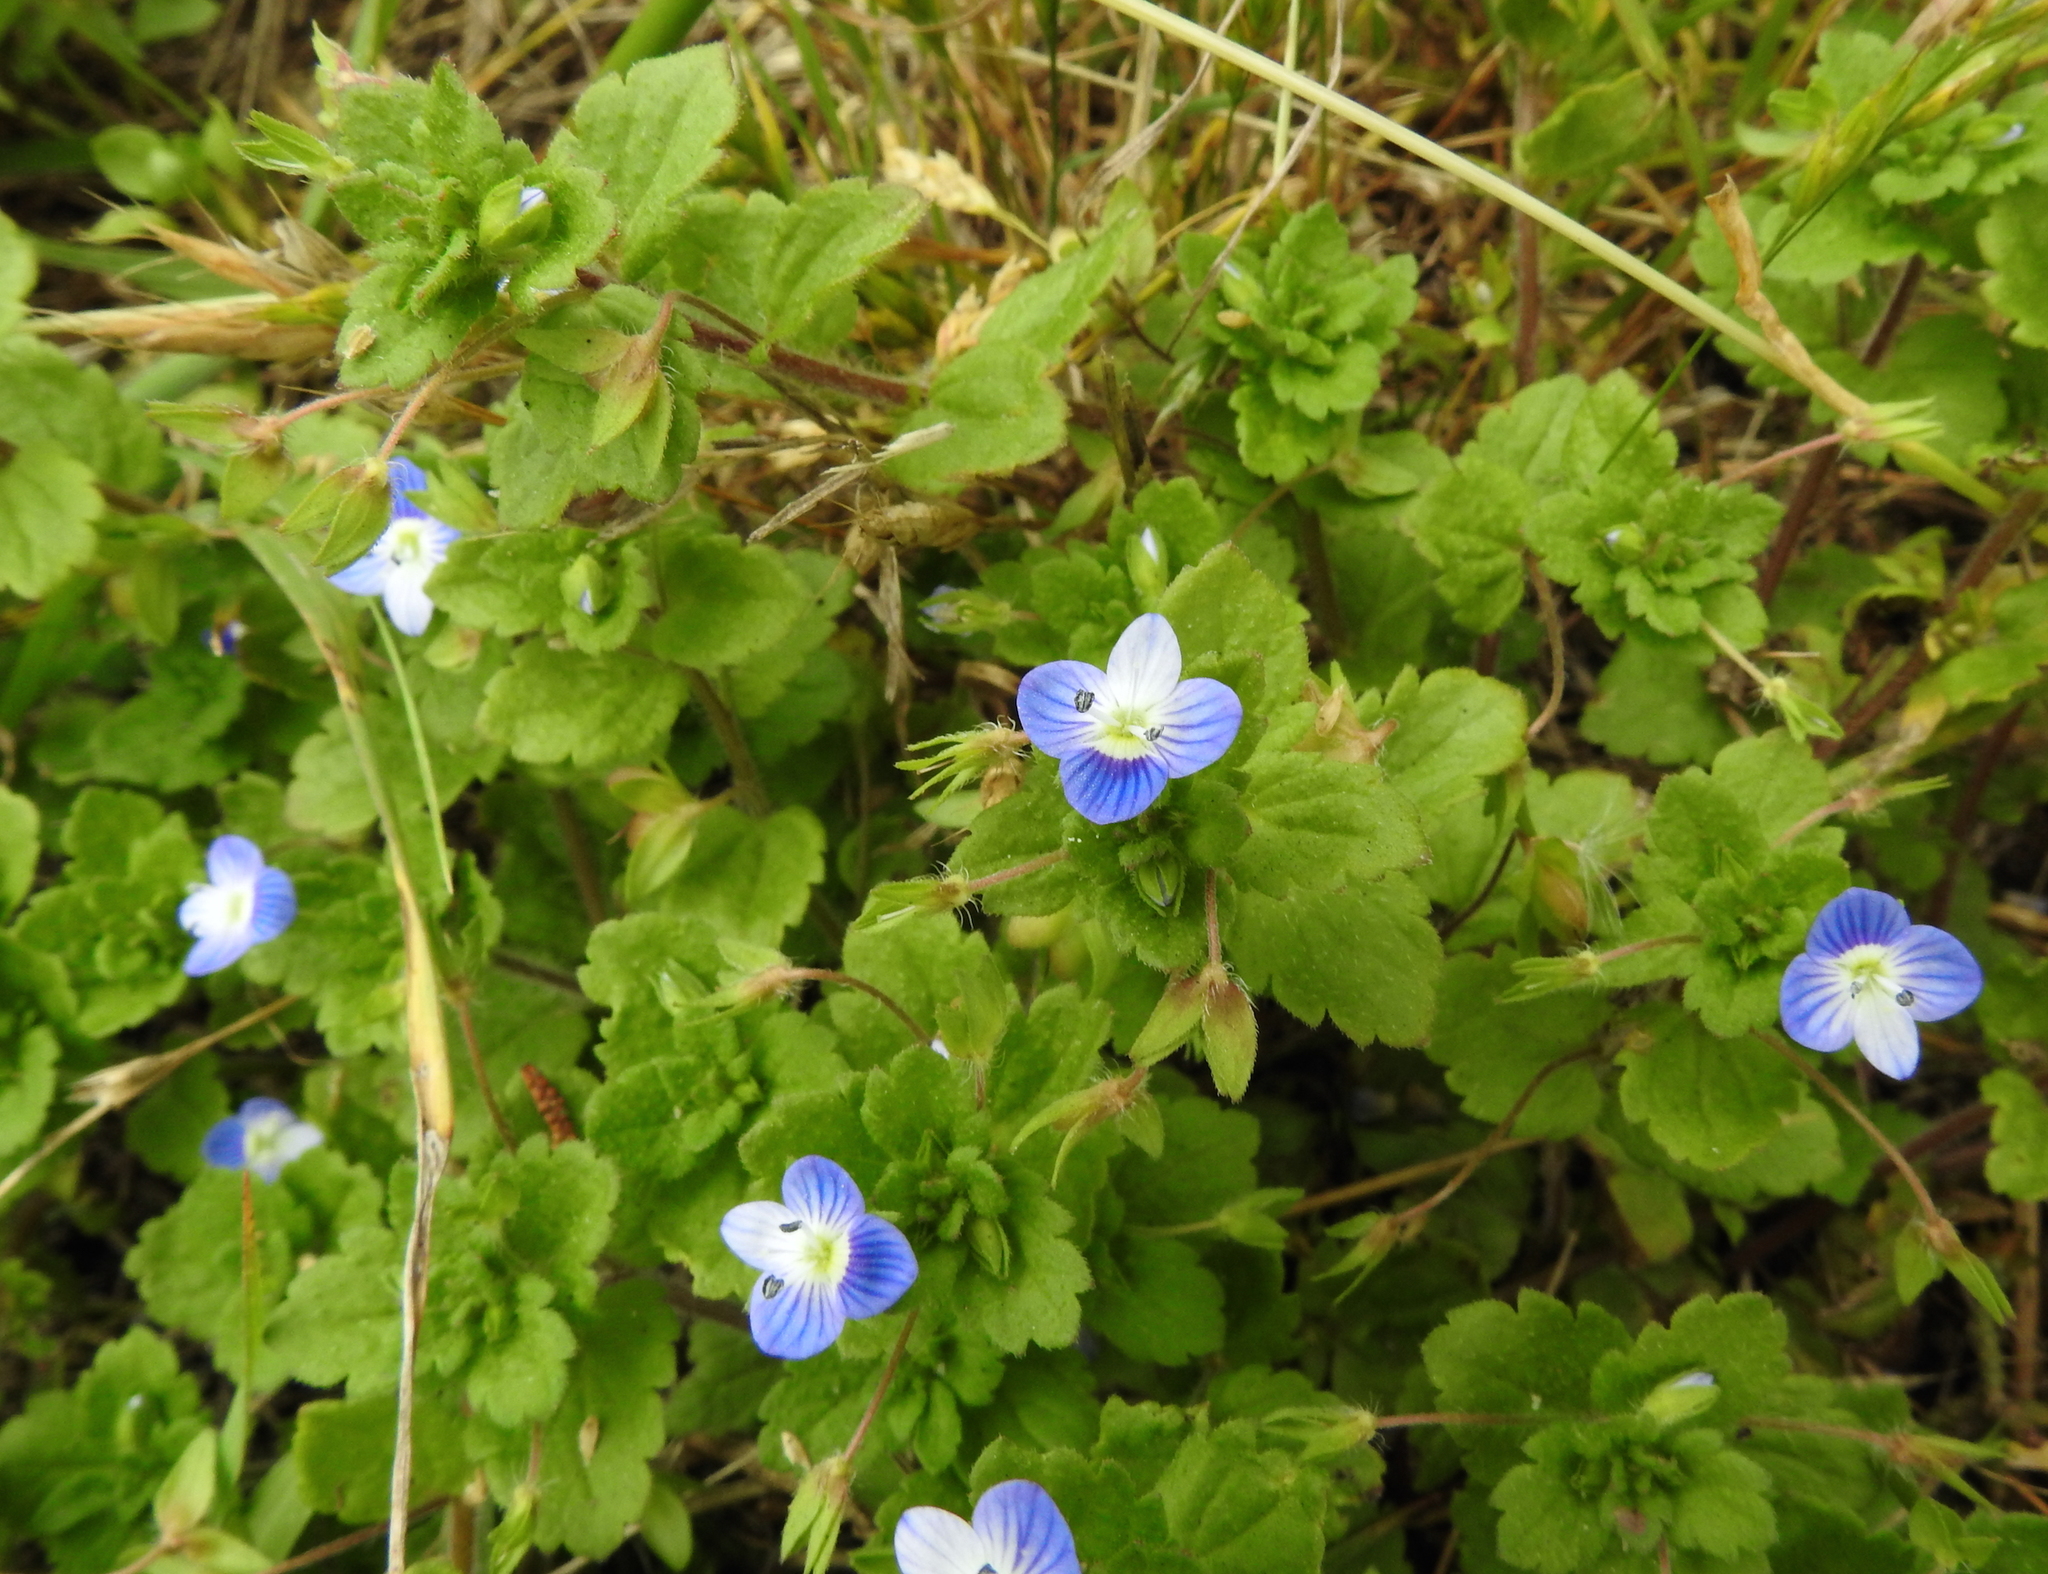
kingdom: Plantae
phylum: Tracheophyta
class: Magnoliopsida
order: Lamiales
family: Plantaginaceae
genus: Veronica
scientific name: Veronica persica
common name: Common field-speedwell
